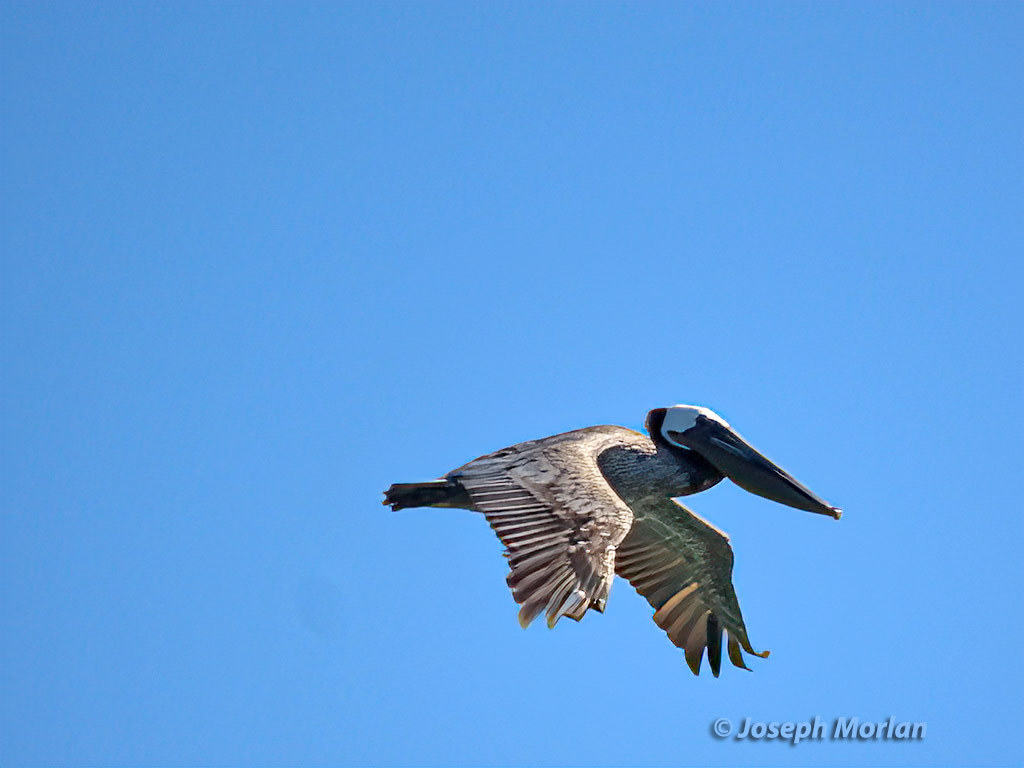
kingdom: Animalia
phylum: Chordata
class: Aves
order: Pelecaniformes
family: Pelecanidae
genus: Pelecanus
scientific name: Pelecanus occidentalis
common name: Brown pelican
